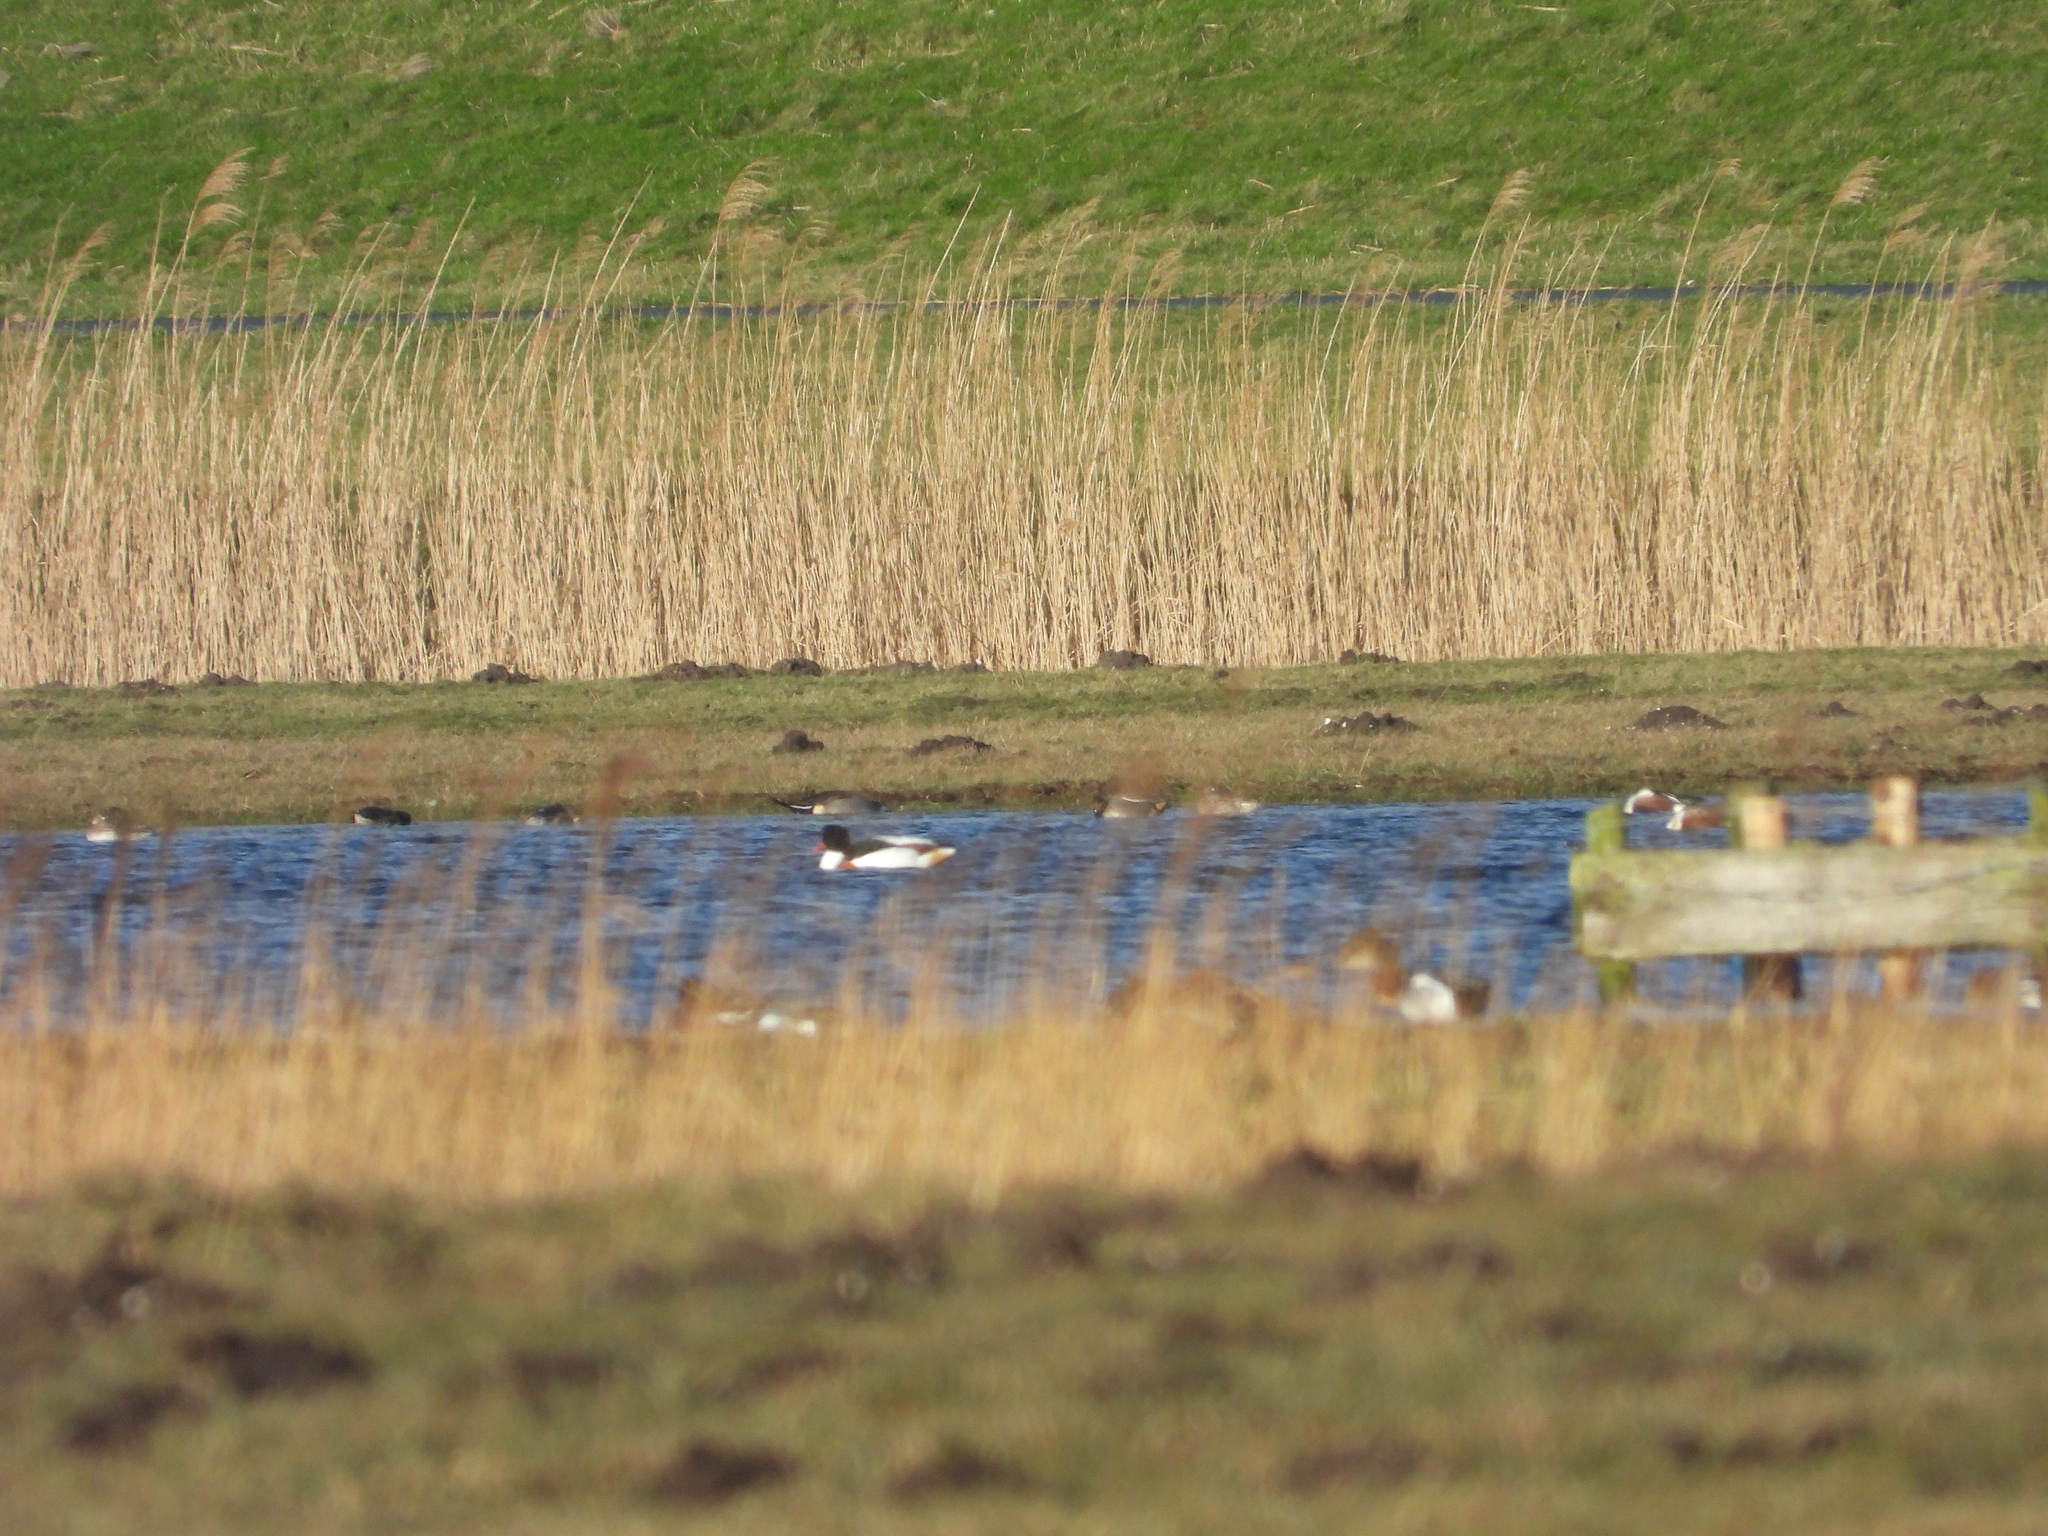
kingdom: Animalia
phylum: Chordata
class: Aves
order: Anseriformes
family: Anatidae
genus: Anas
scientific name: Anas acuta
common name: Northern pintail
